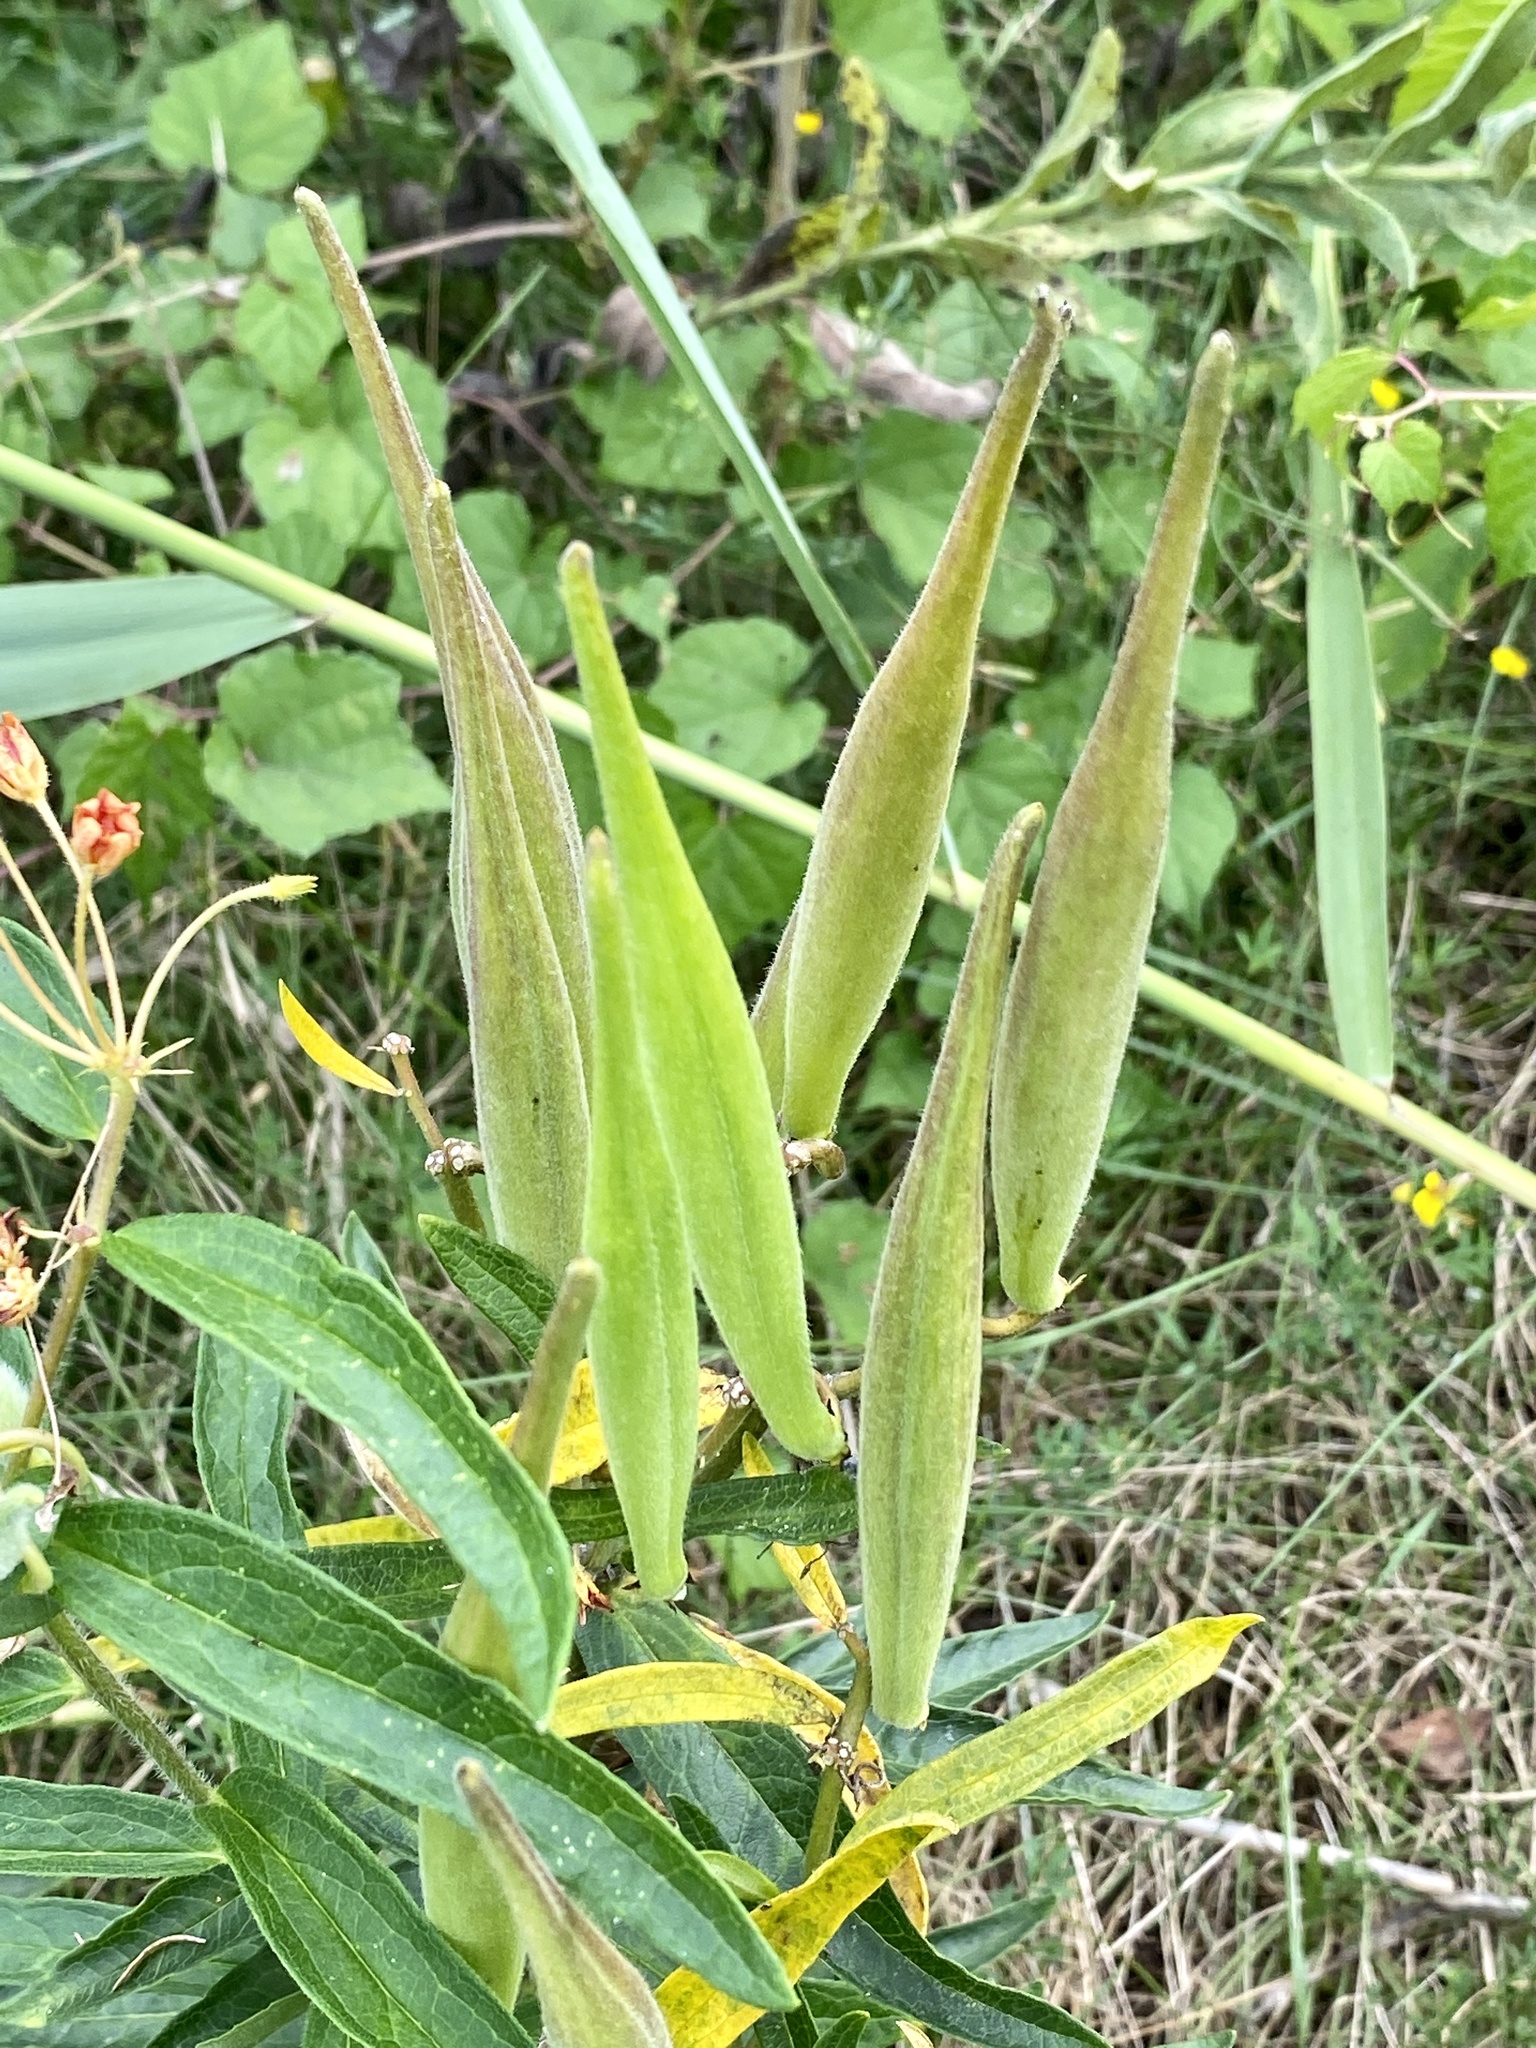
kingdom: Plantae
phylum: Tracheophyta
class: Magnoliopsida
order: Gentianales
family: Apocynaceae
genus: Asclepias
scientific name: Asclepias tuberosa
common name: Butterfly milkweed
